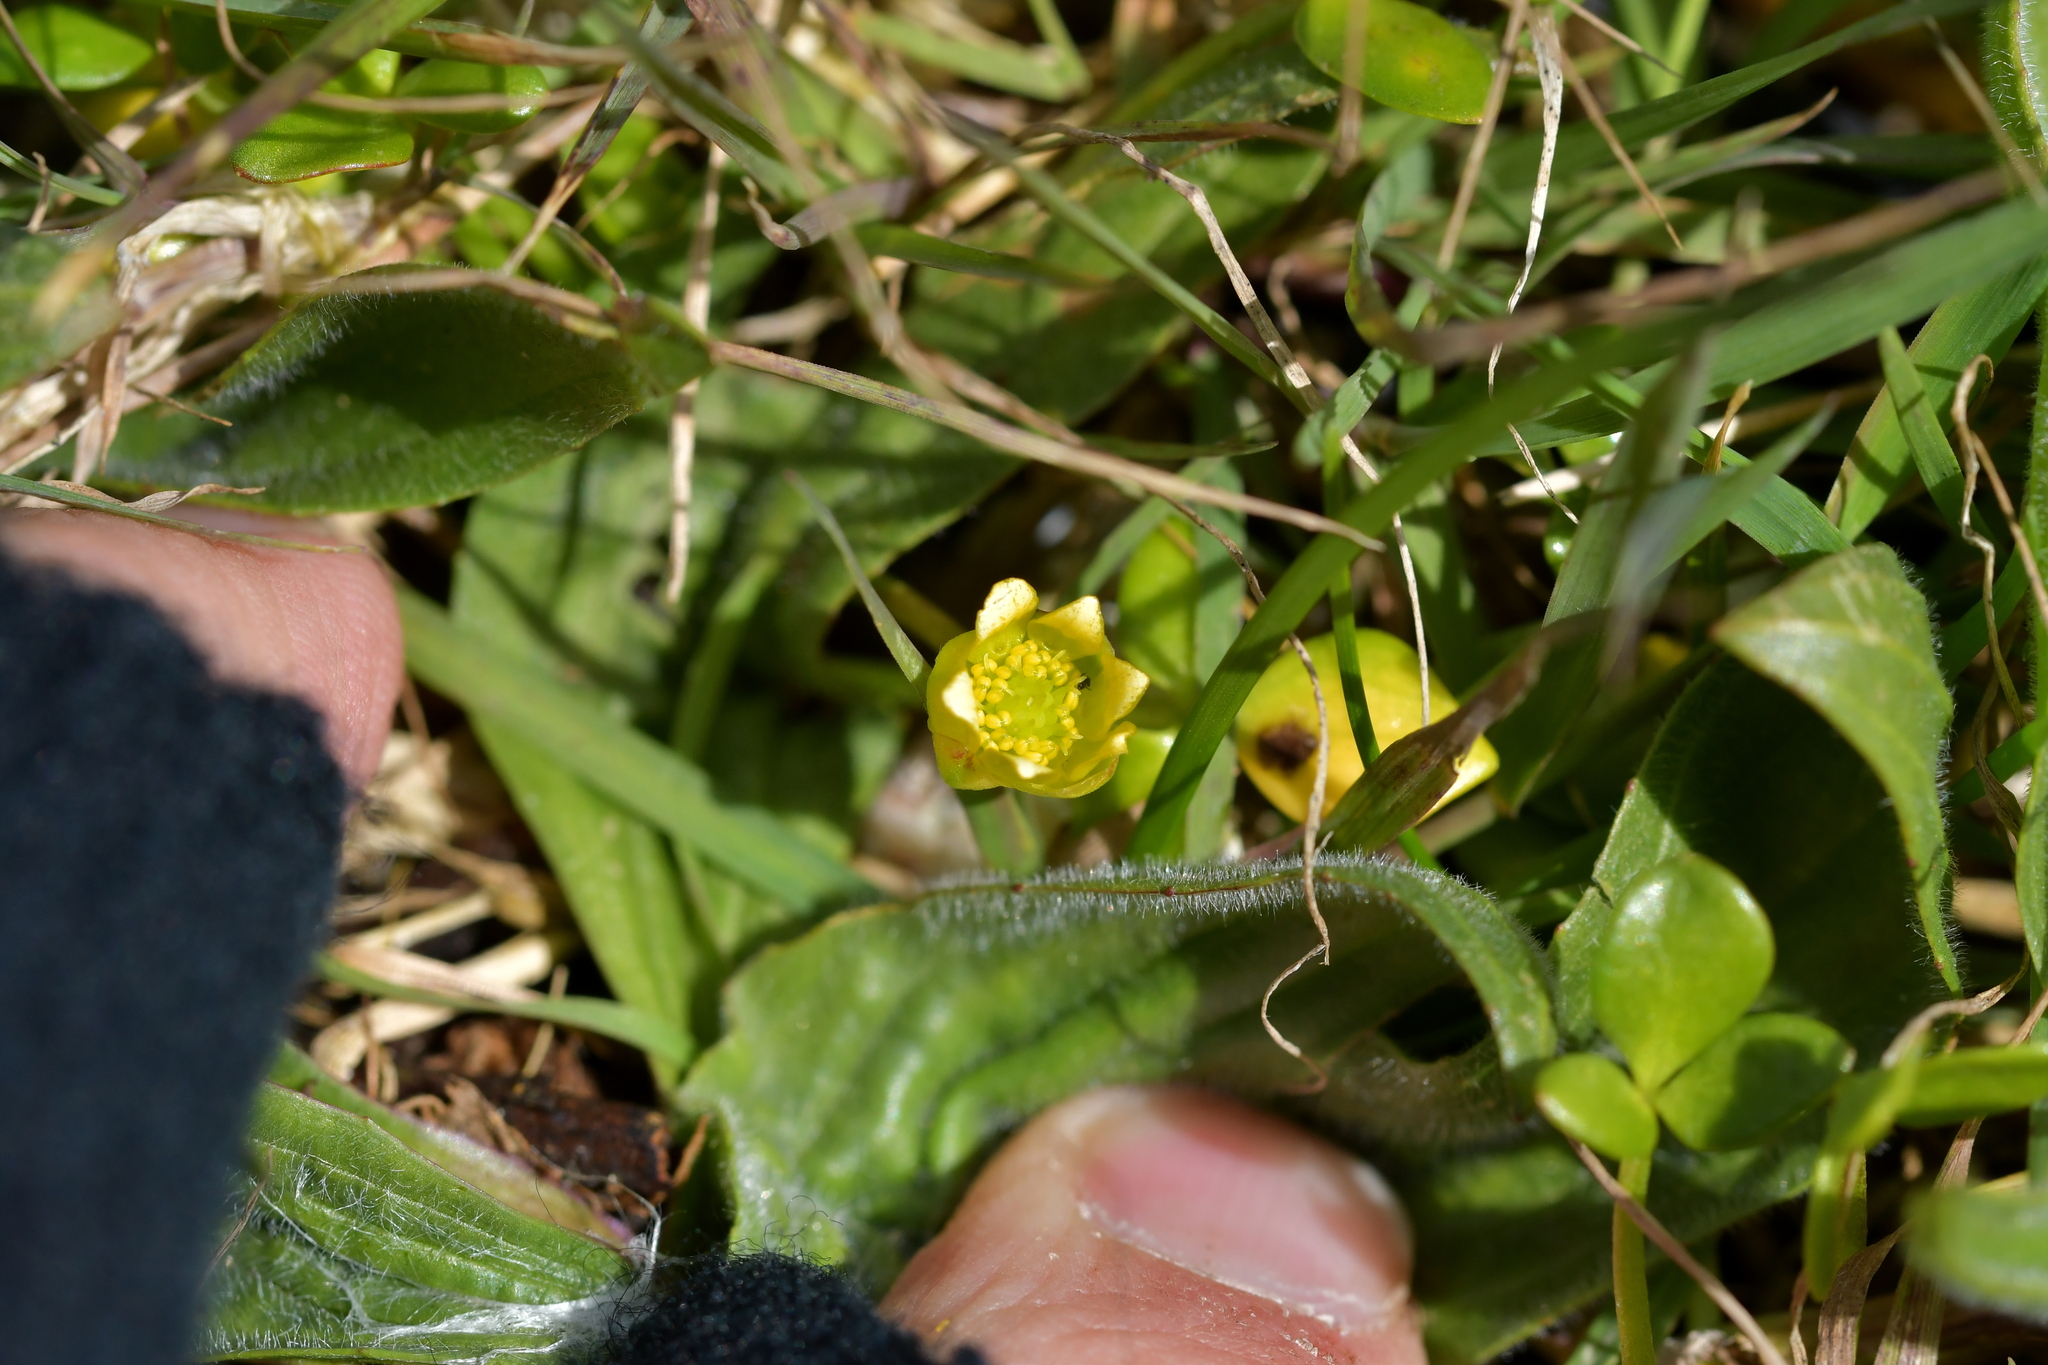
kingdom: Plantae
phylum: Tracheophyta
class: Magnoliopsida
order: Ranunculales
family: Ranunculaceae
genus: Ranunculus
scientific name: Ranunculus acaulis
